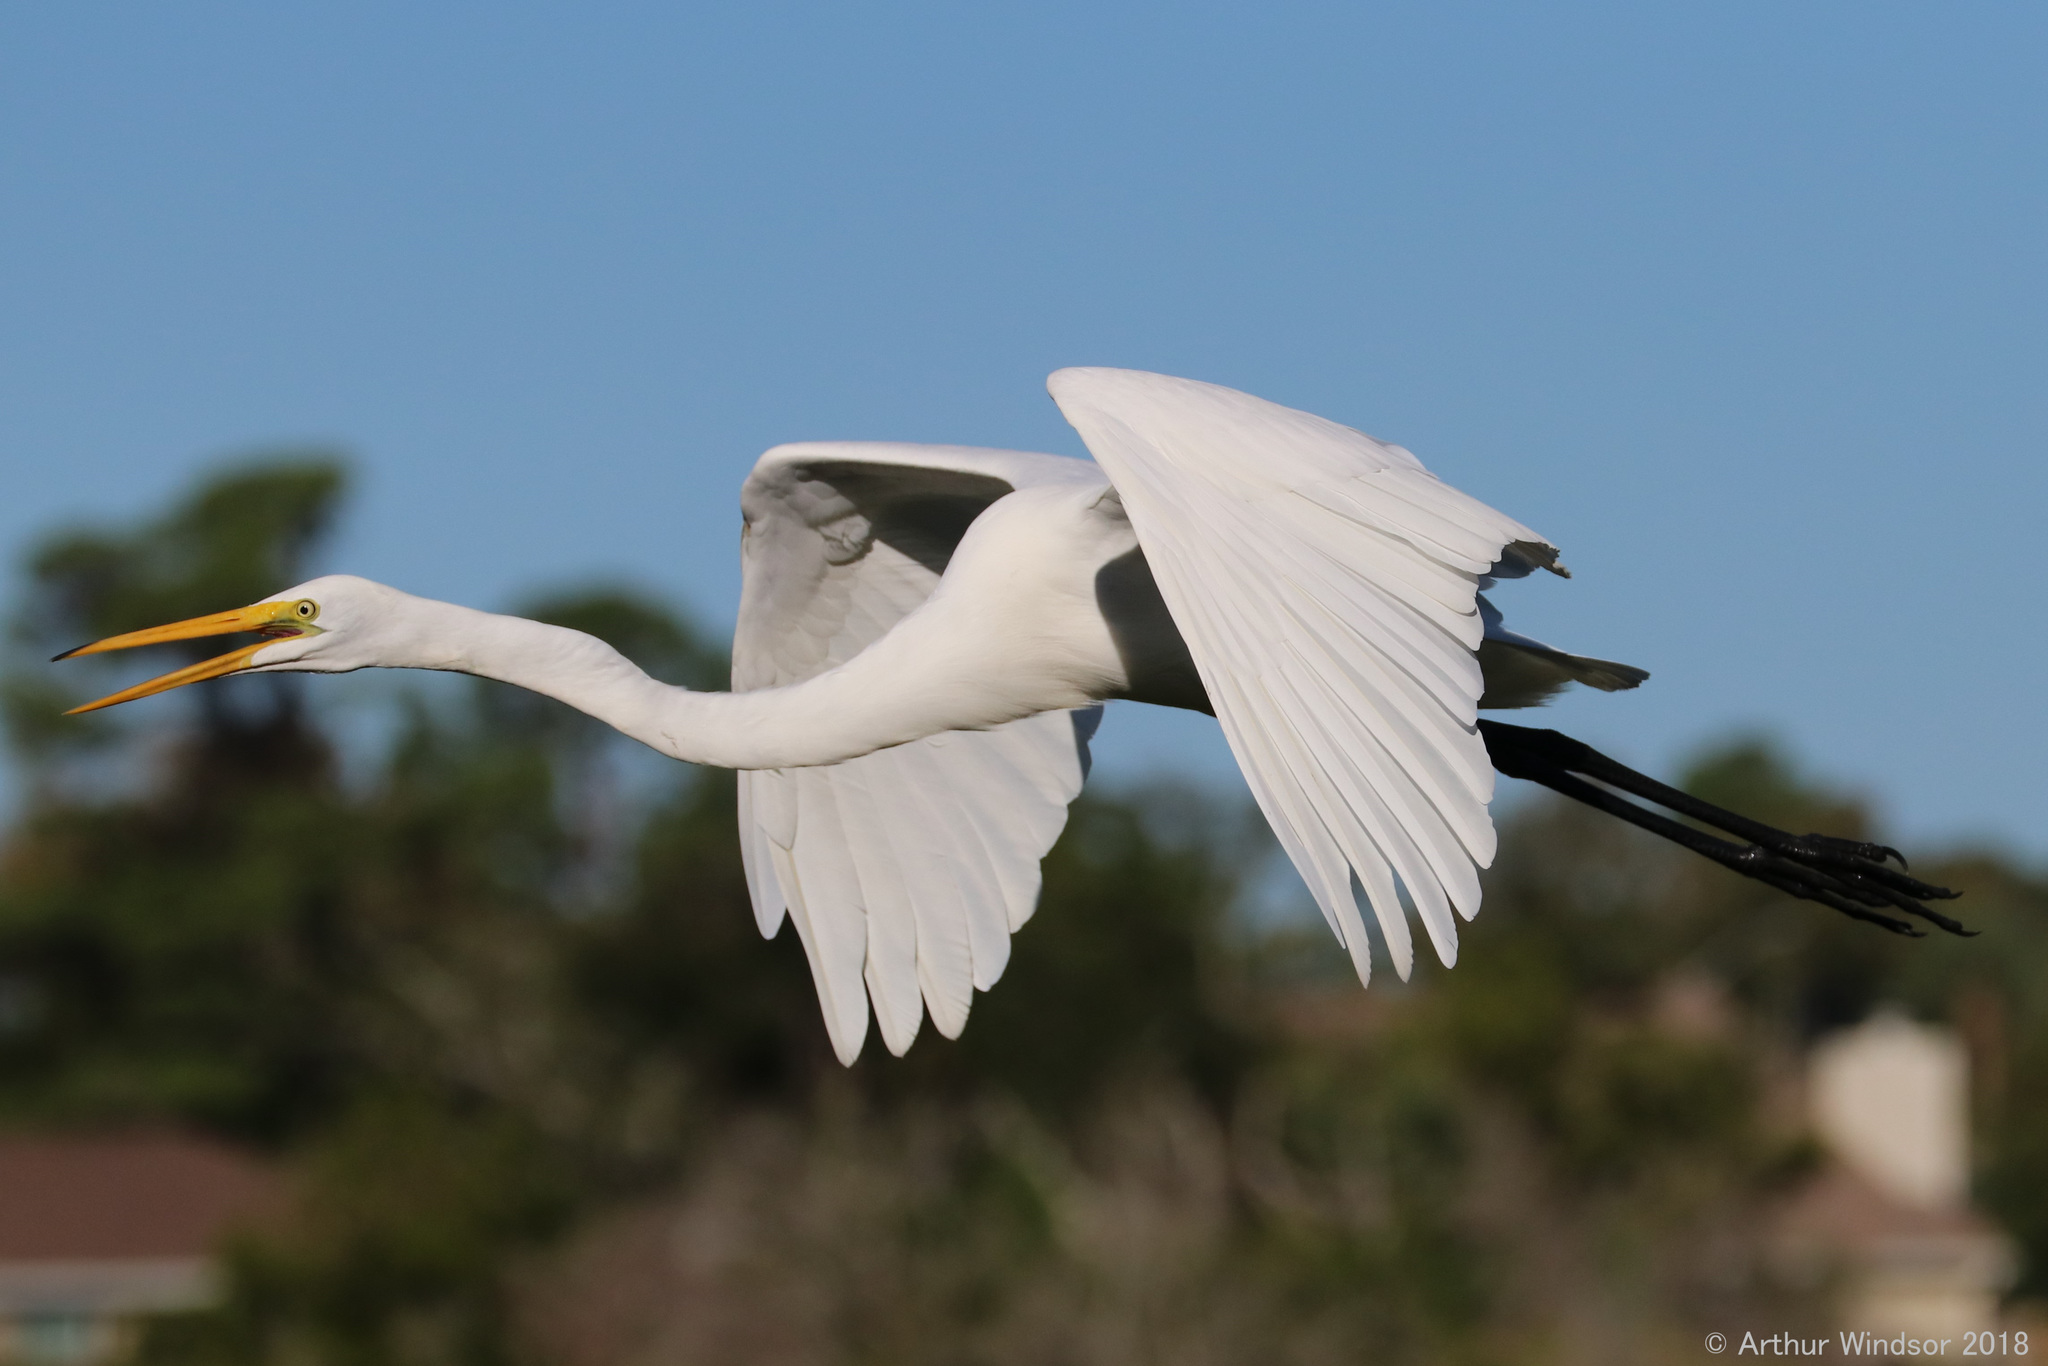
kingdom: Animalia
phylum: Chordata
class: Aves
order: Pelecaniformes
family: Ardeidae
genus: Ardea
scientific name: Ardea alba
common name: Great egret
